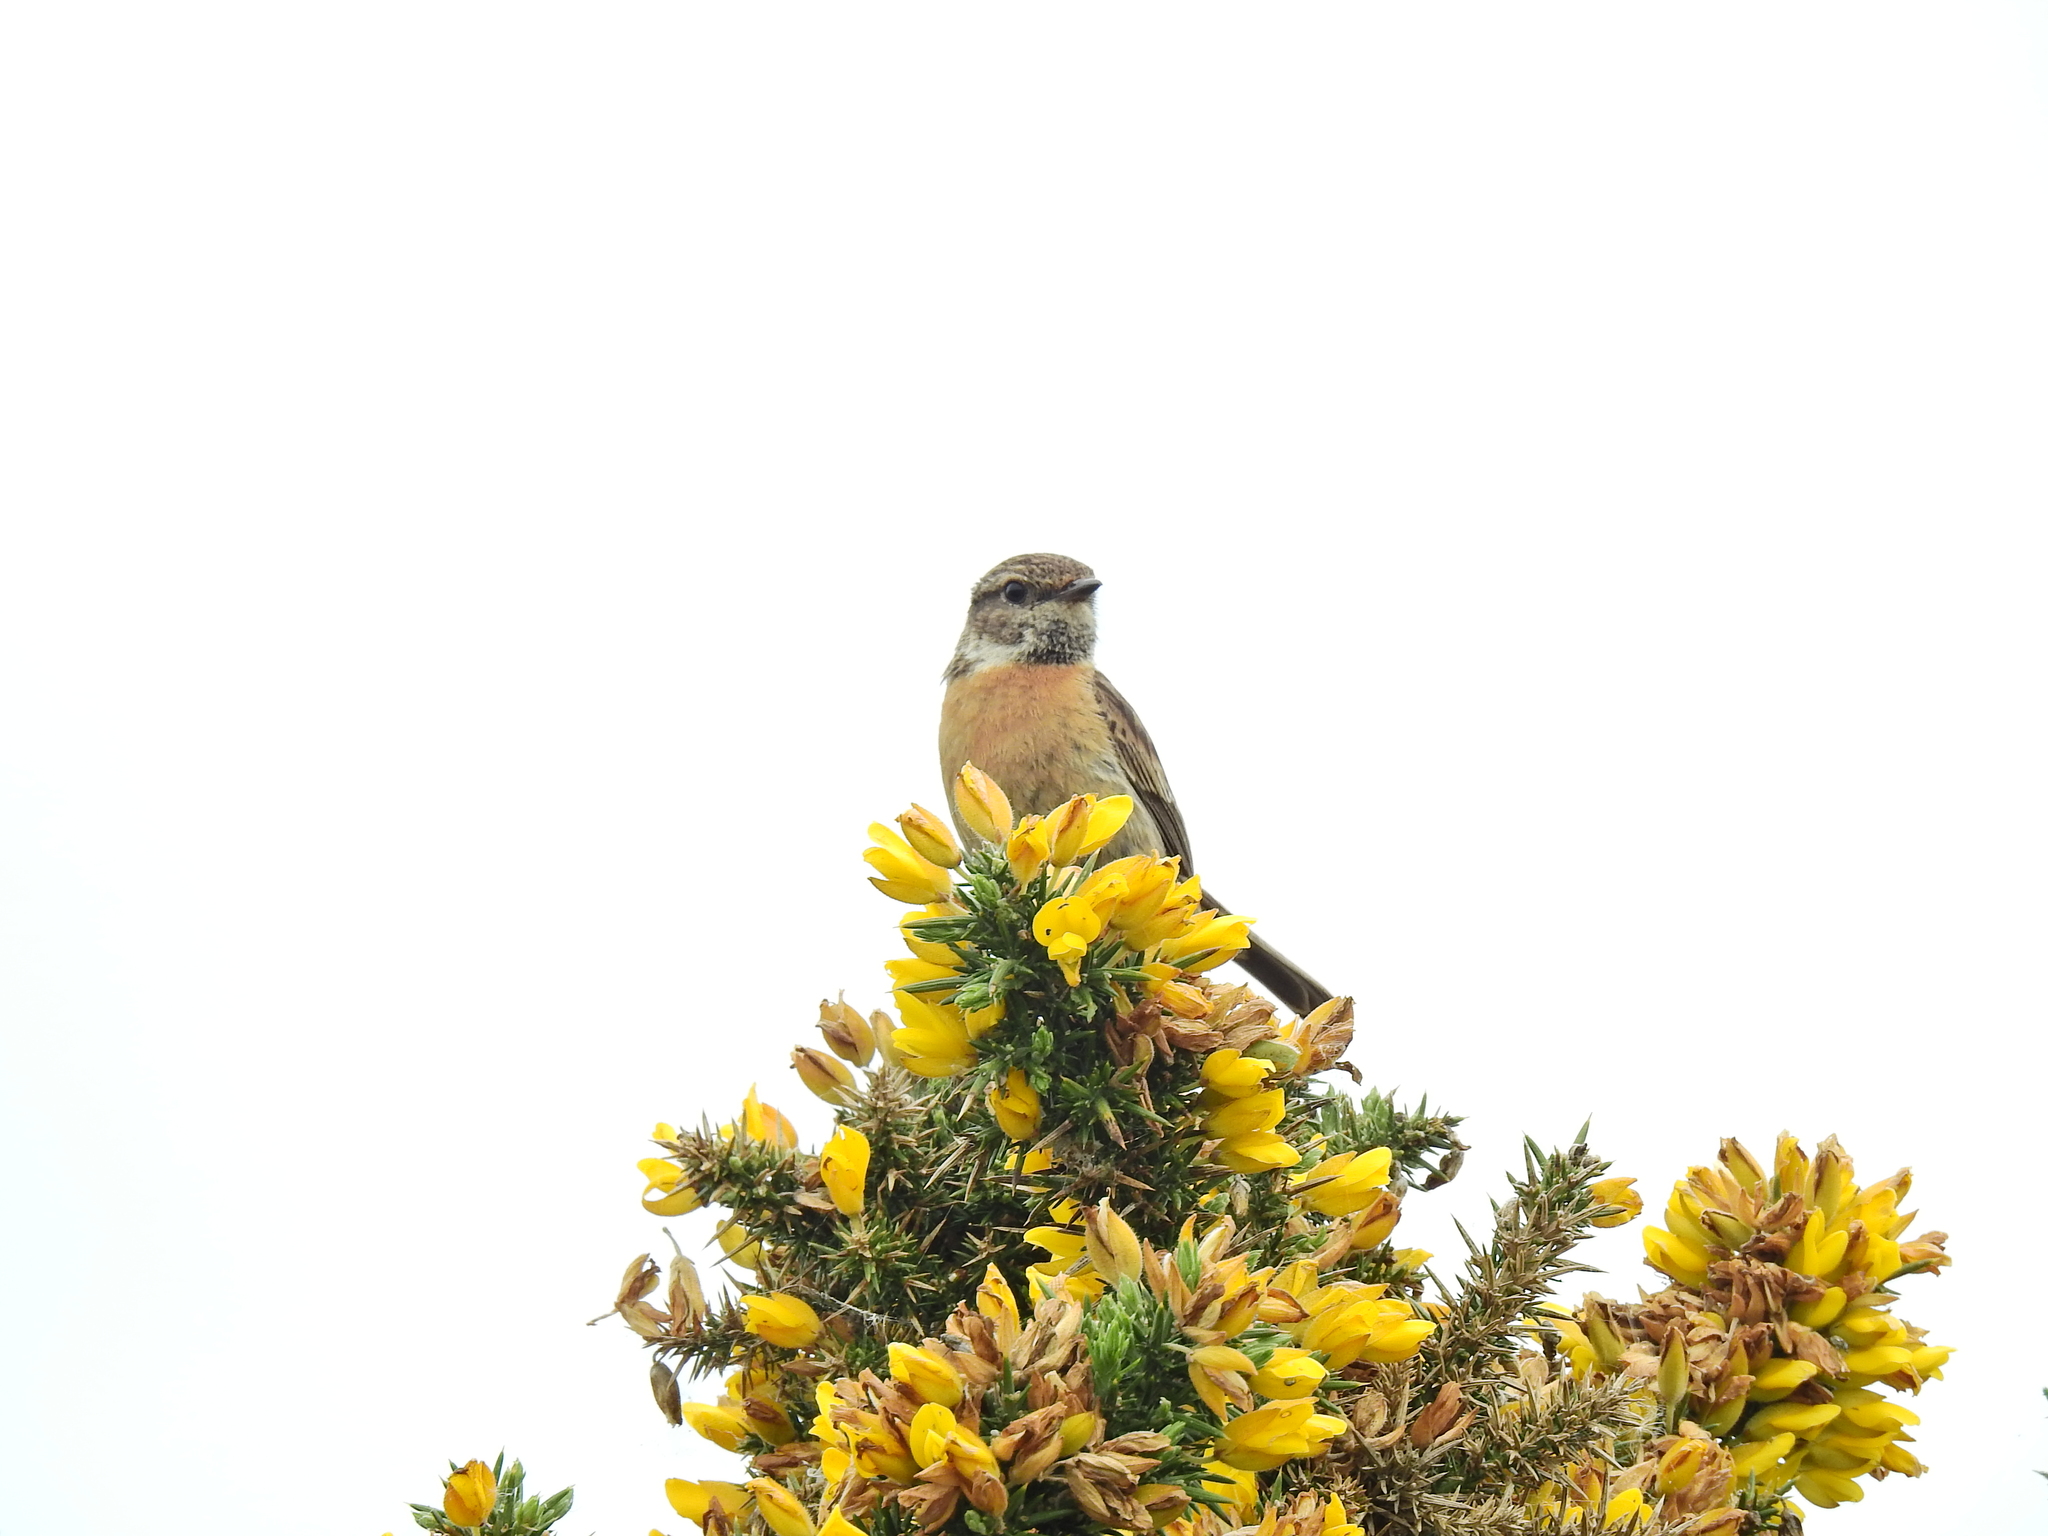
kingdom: Animalia
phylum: Chordata
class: Aves
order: Passeriformes
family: Muscicapidae
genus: Saxicola
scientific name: Saxicola rubicola
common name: European stonechat
